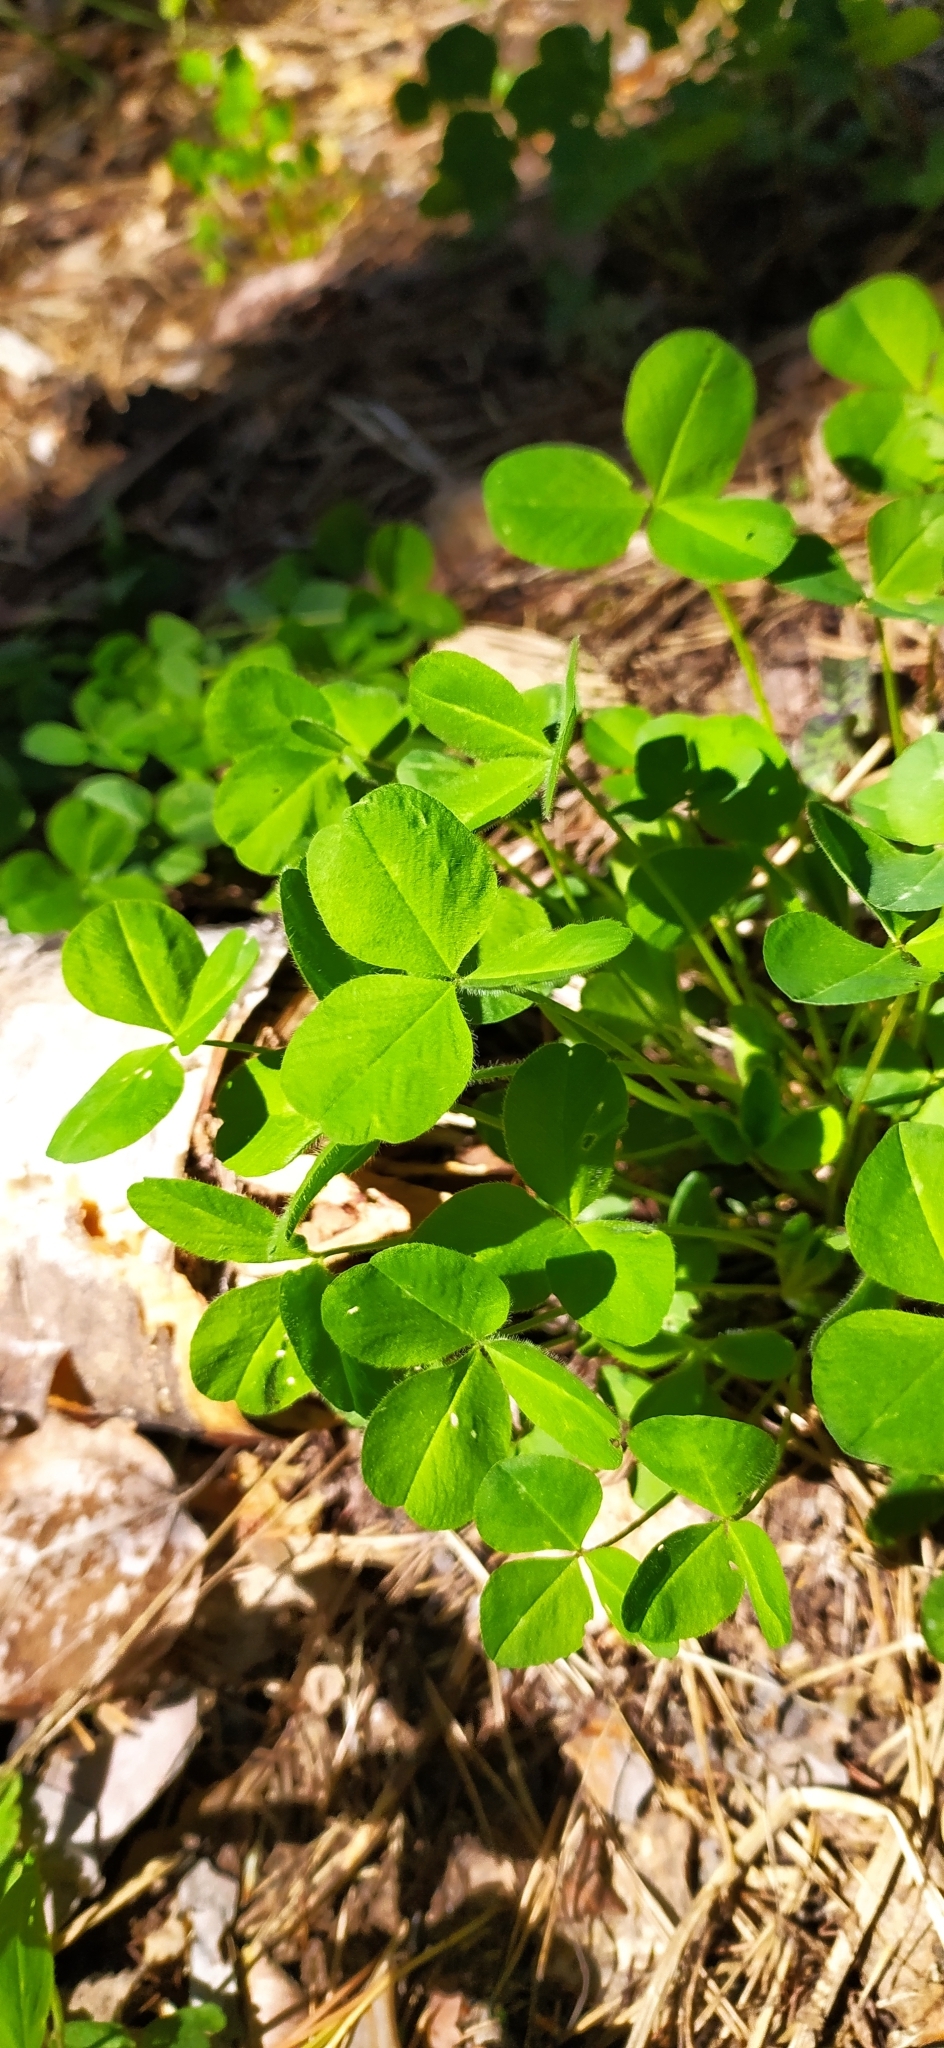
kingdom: Plantae
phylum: Tracheophyta
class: Magnoliopsida
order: Fabales
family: Fabaceae
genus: Trifolium
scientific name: Trifolium repens
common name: White clover
